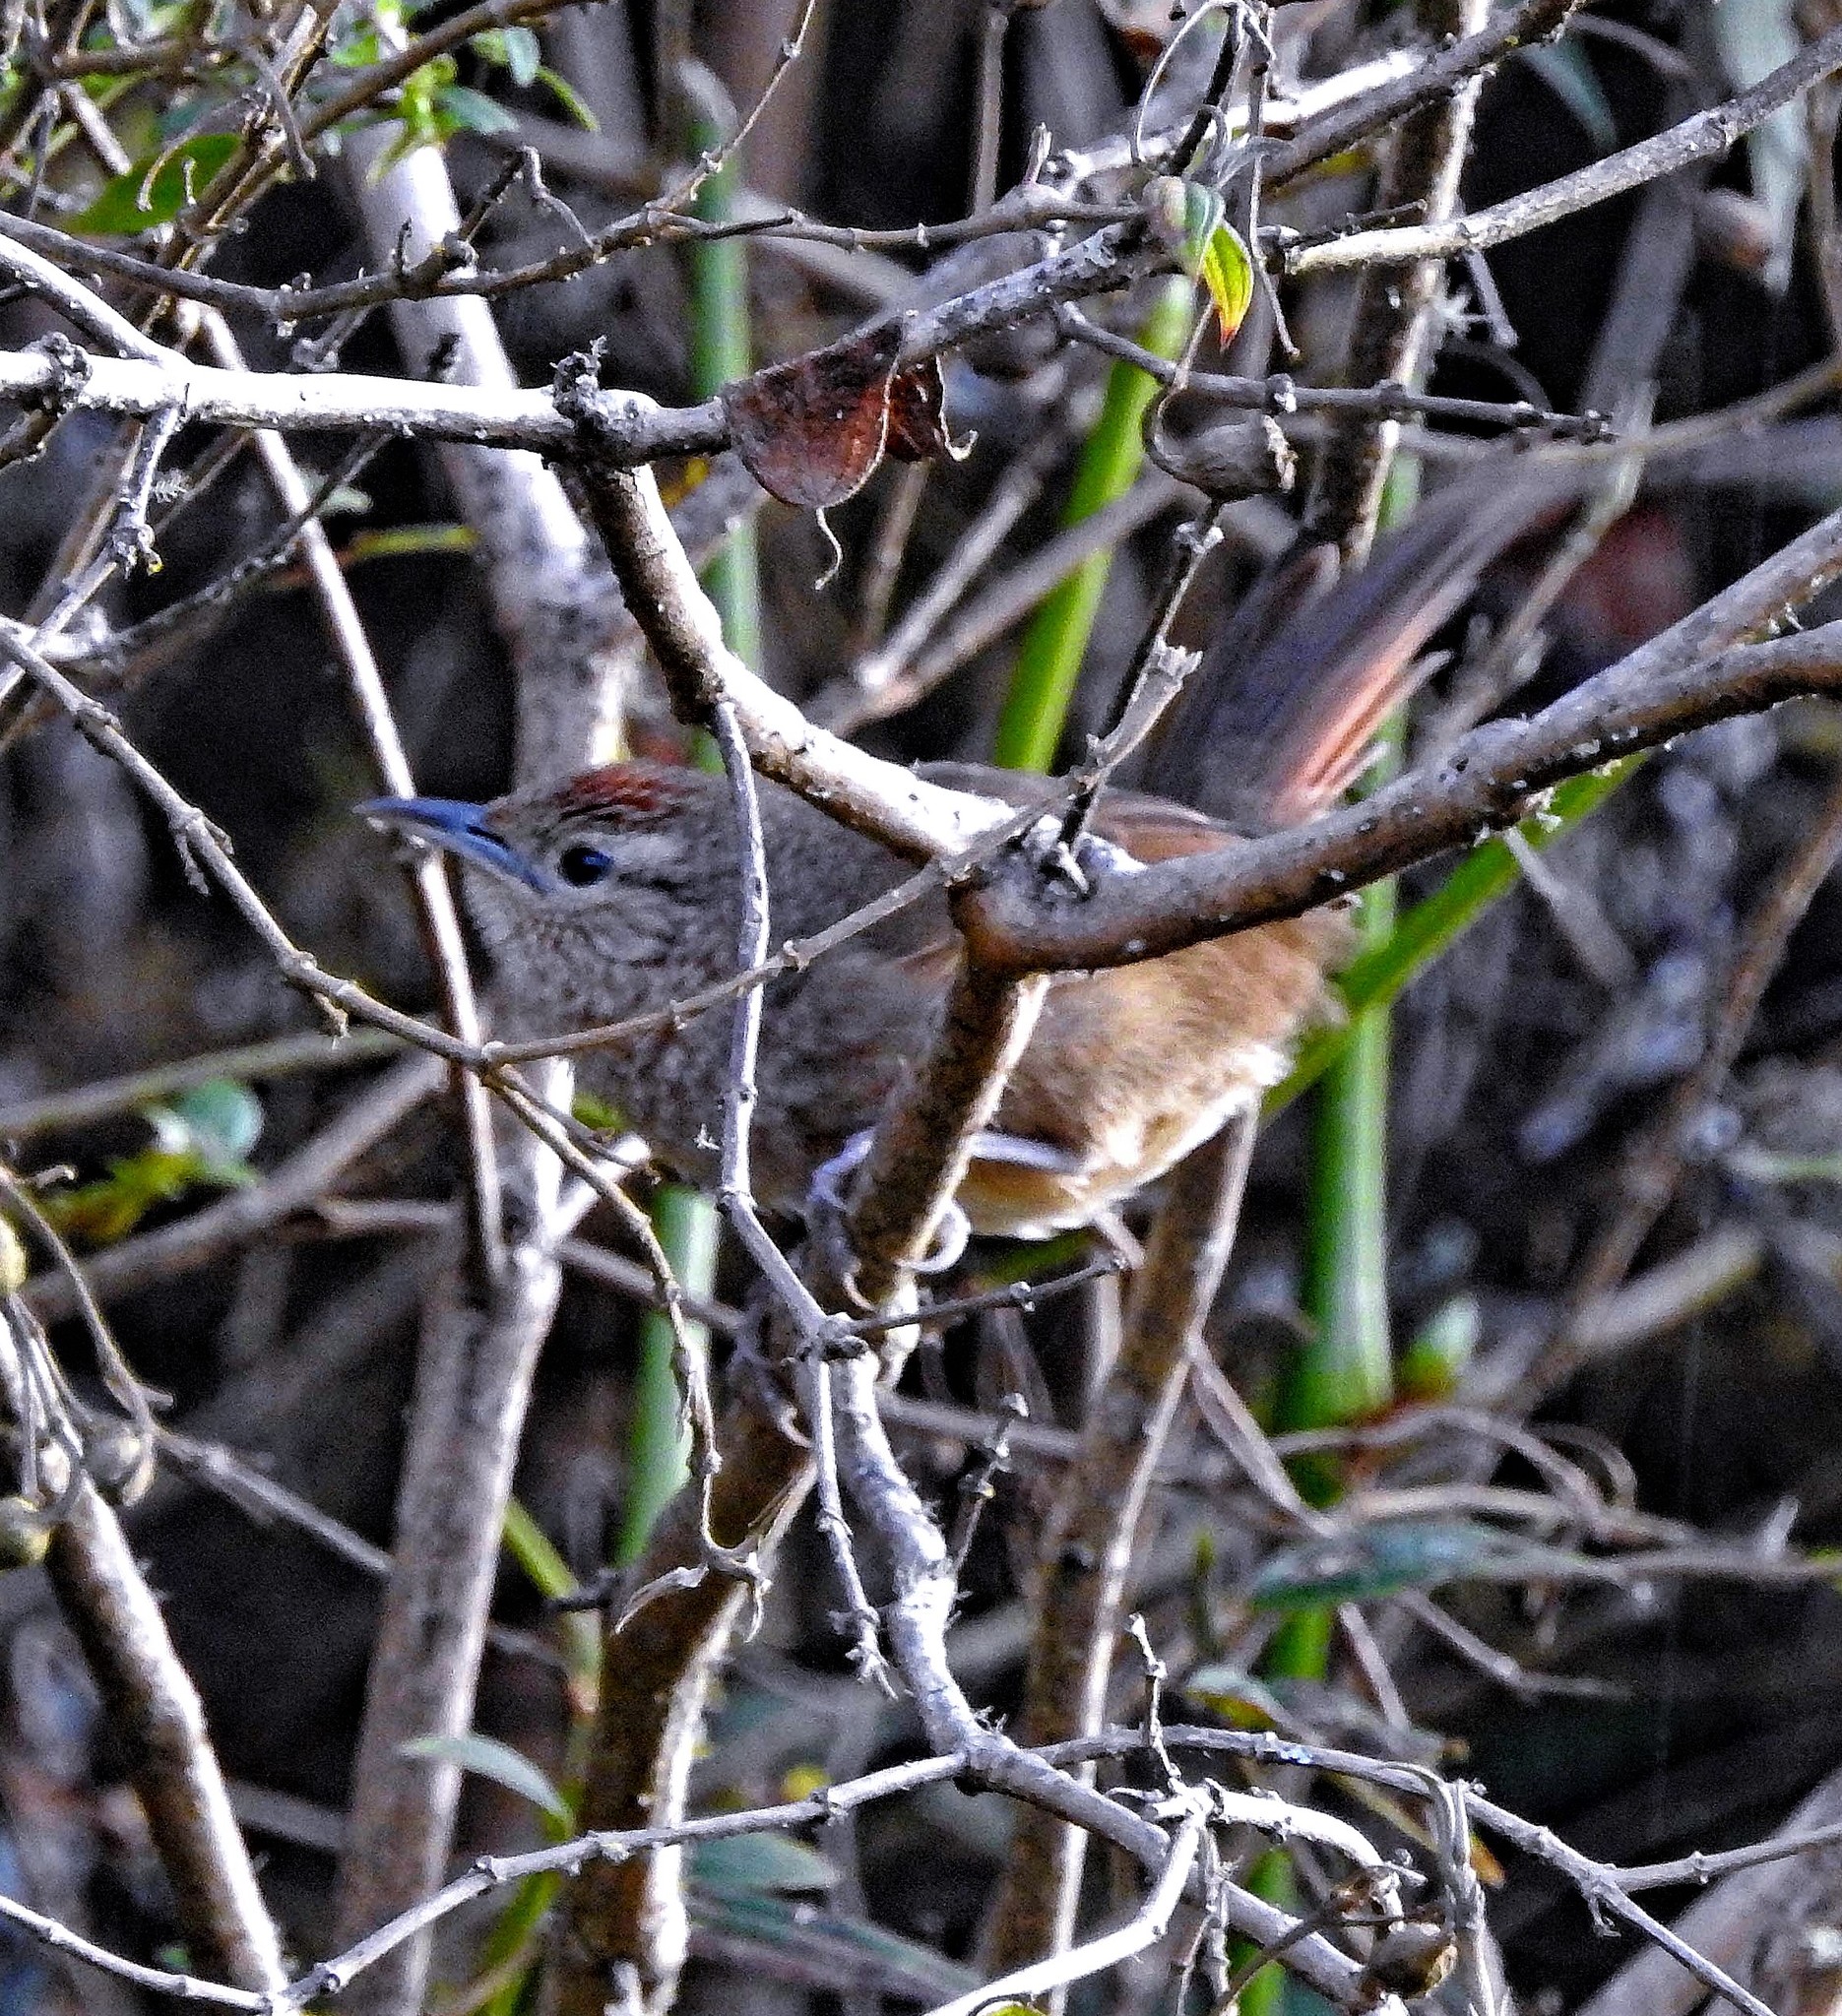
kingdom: Animalia
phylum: Chordata
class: Aves
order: Passeriformes
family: Furnariidae
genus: Phacellodomus
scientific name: Phacellodomus maculipectus
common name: Spot-breasted thornbird
